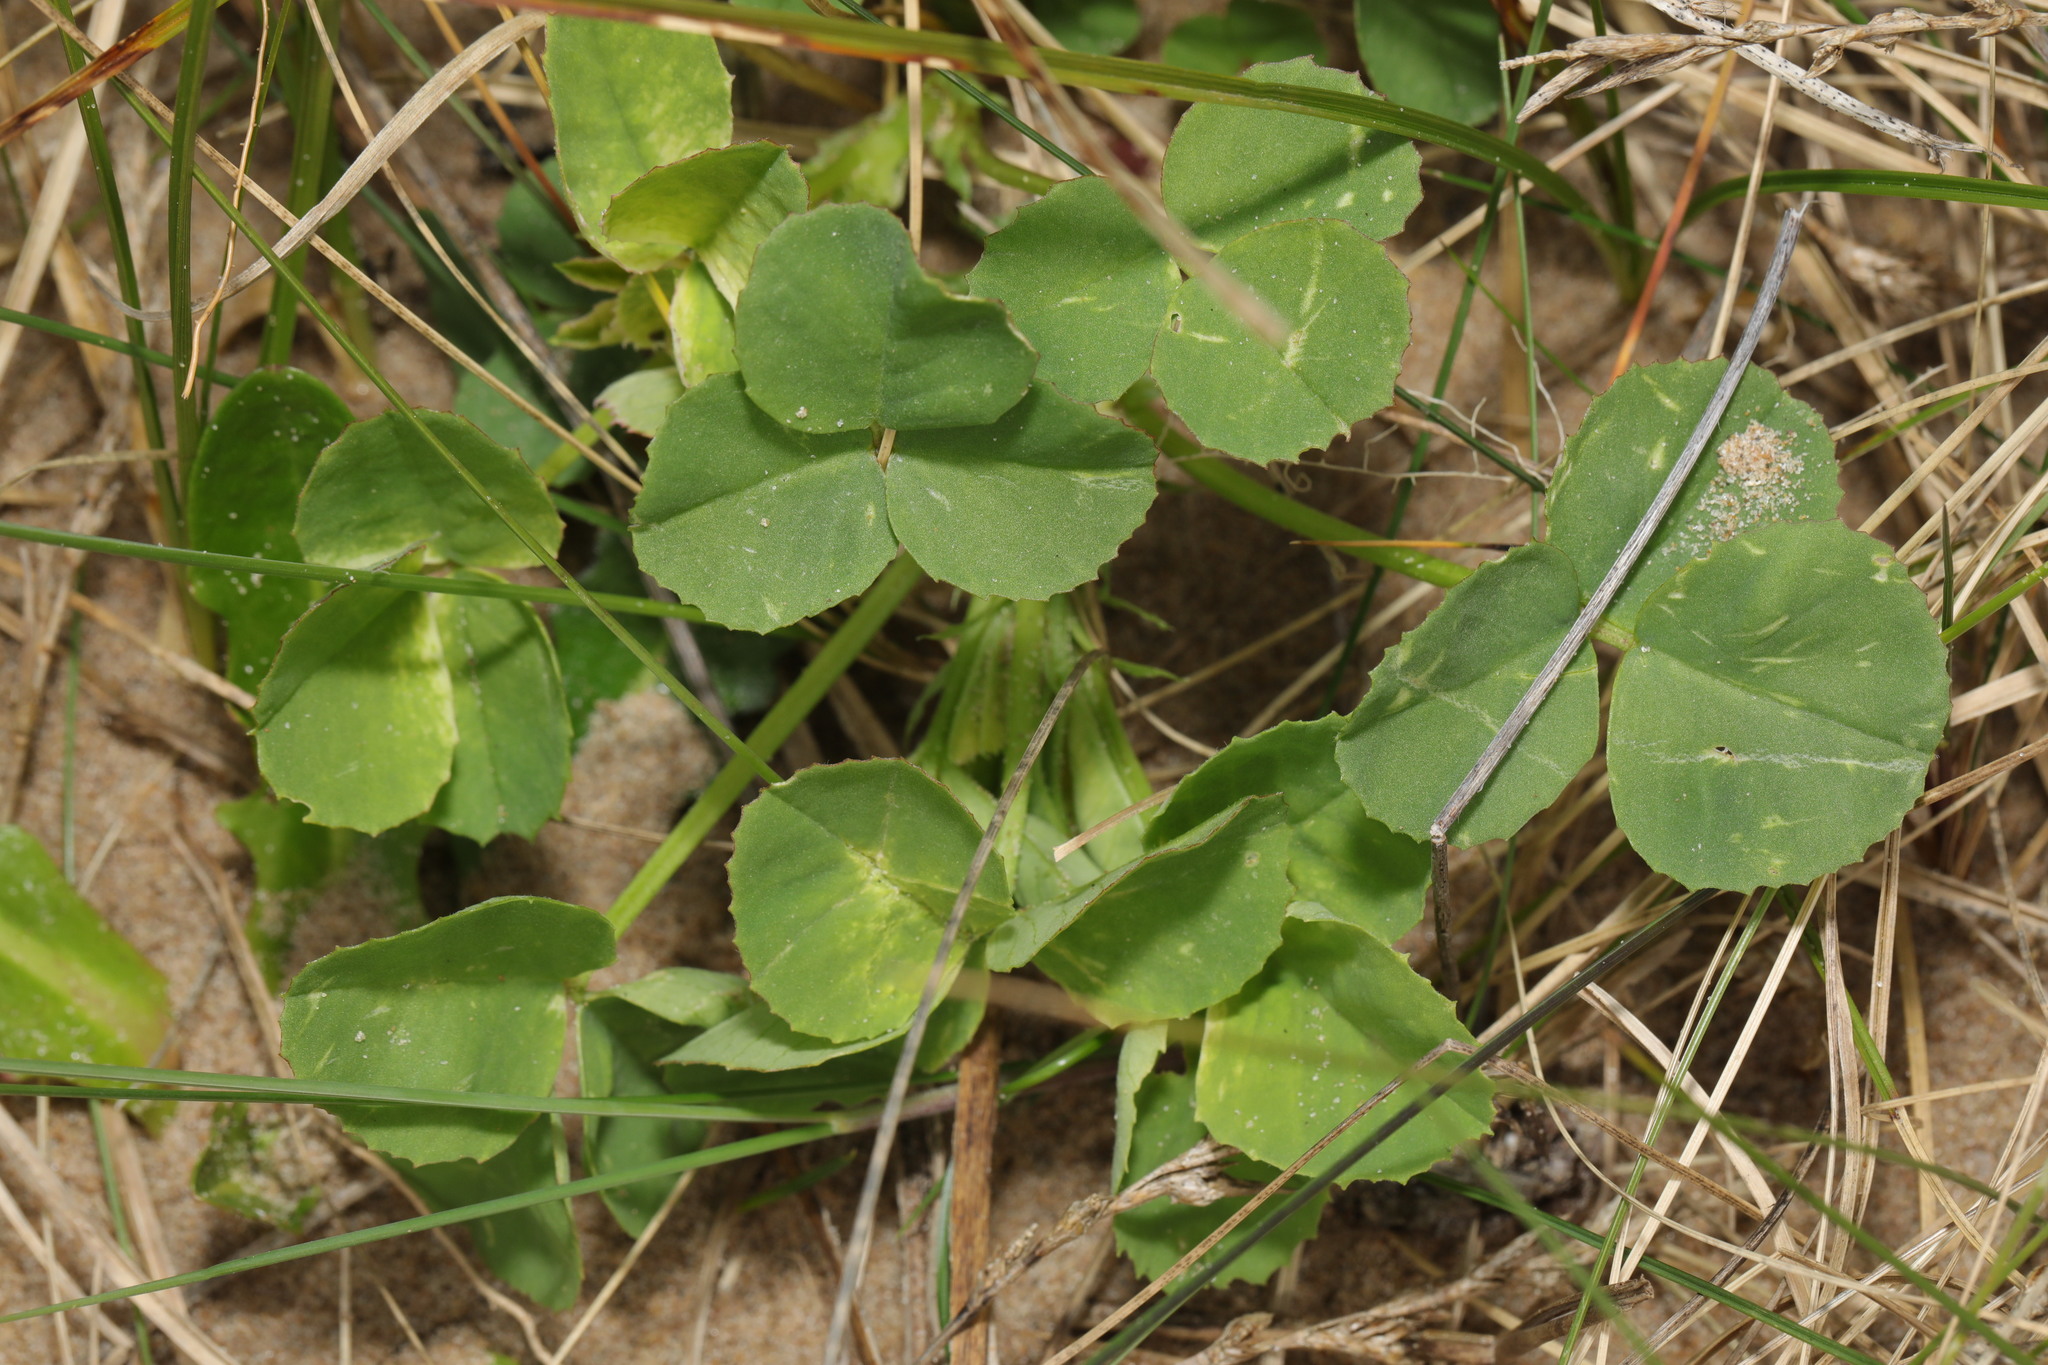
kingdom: Plantae
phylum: Tracheophyta
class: Magnoliopsida
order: Fabales
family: Fabaceae
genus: Trifolium
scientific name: Trifolium repens
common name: White clover
